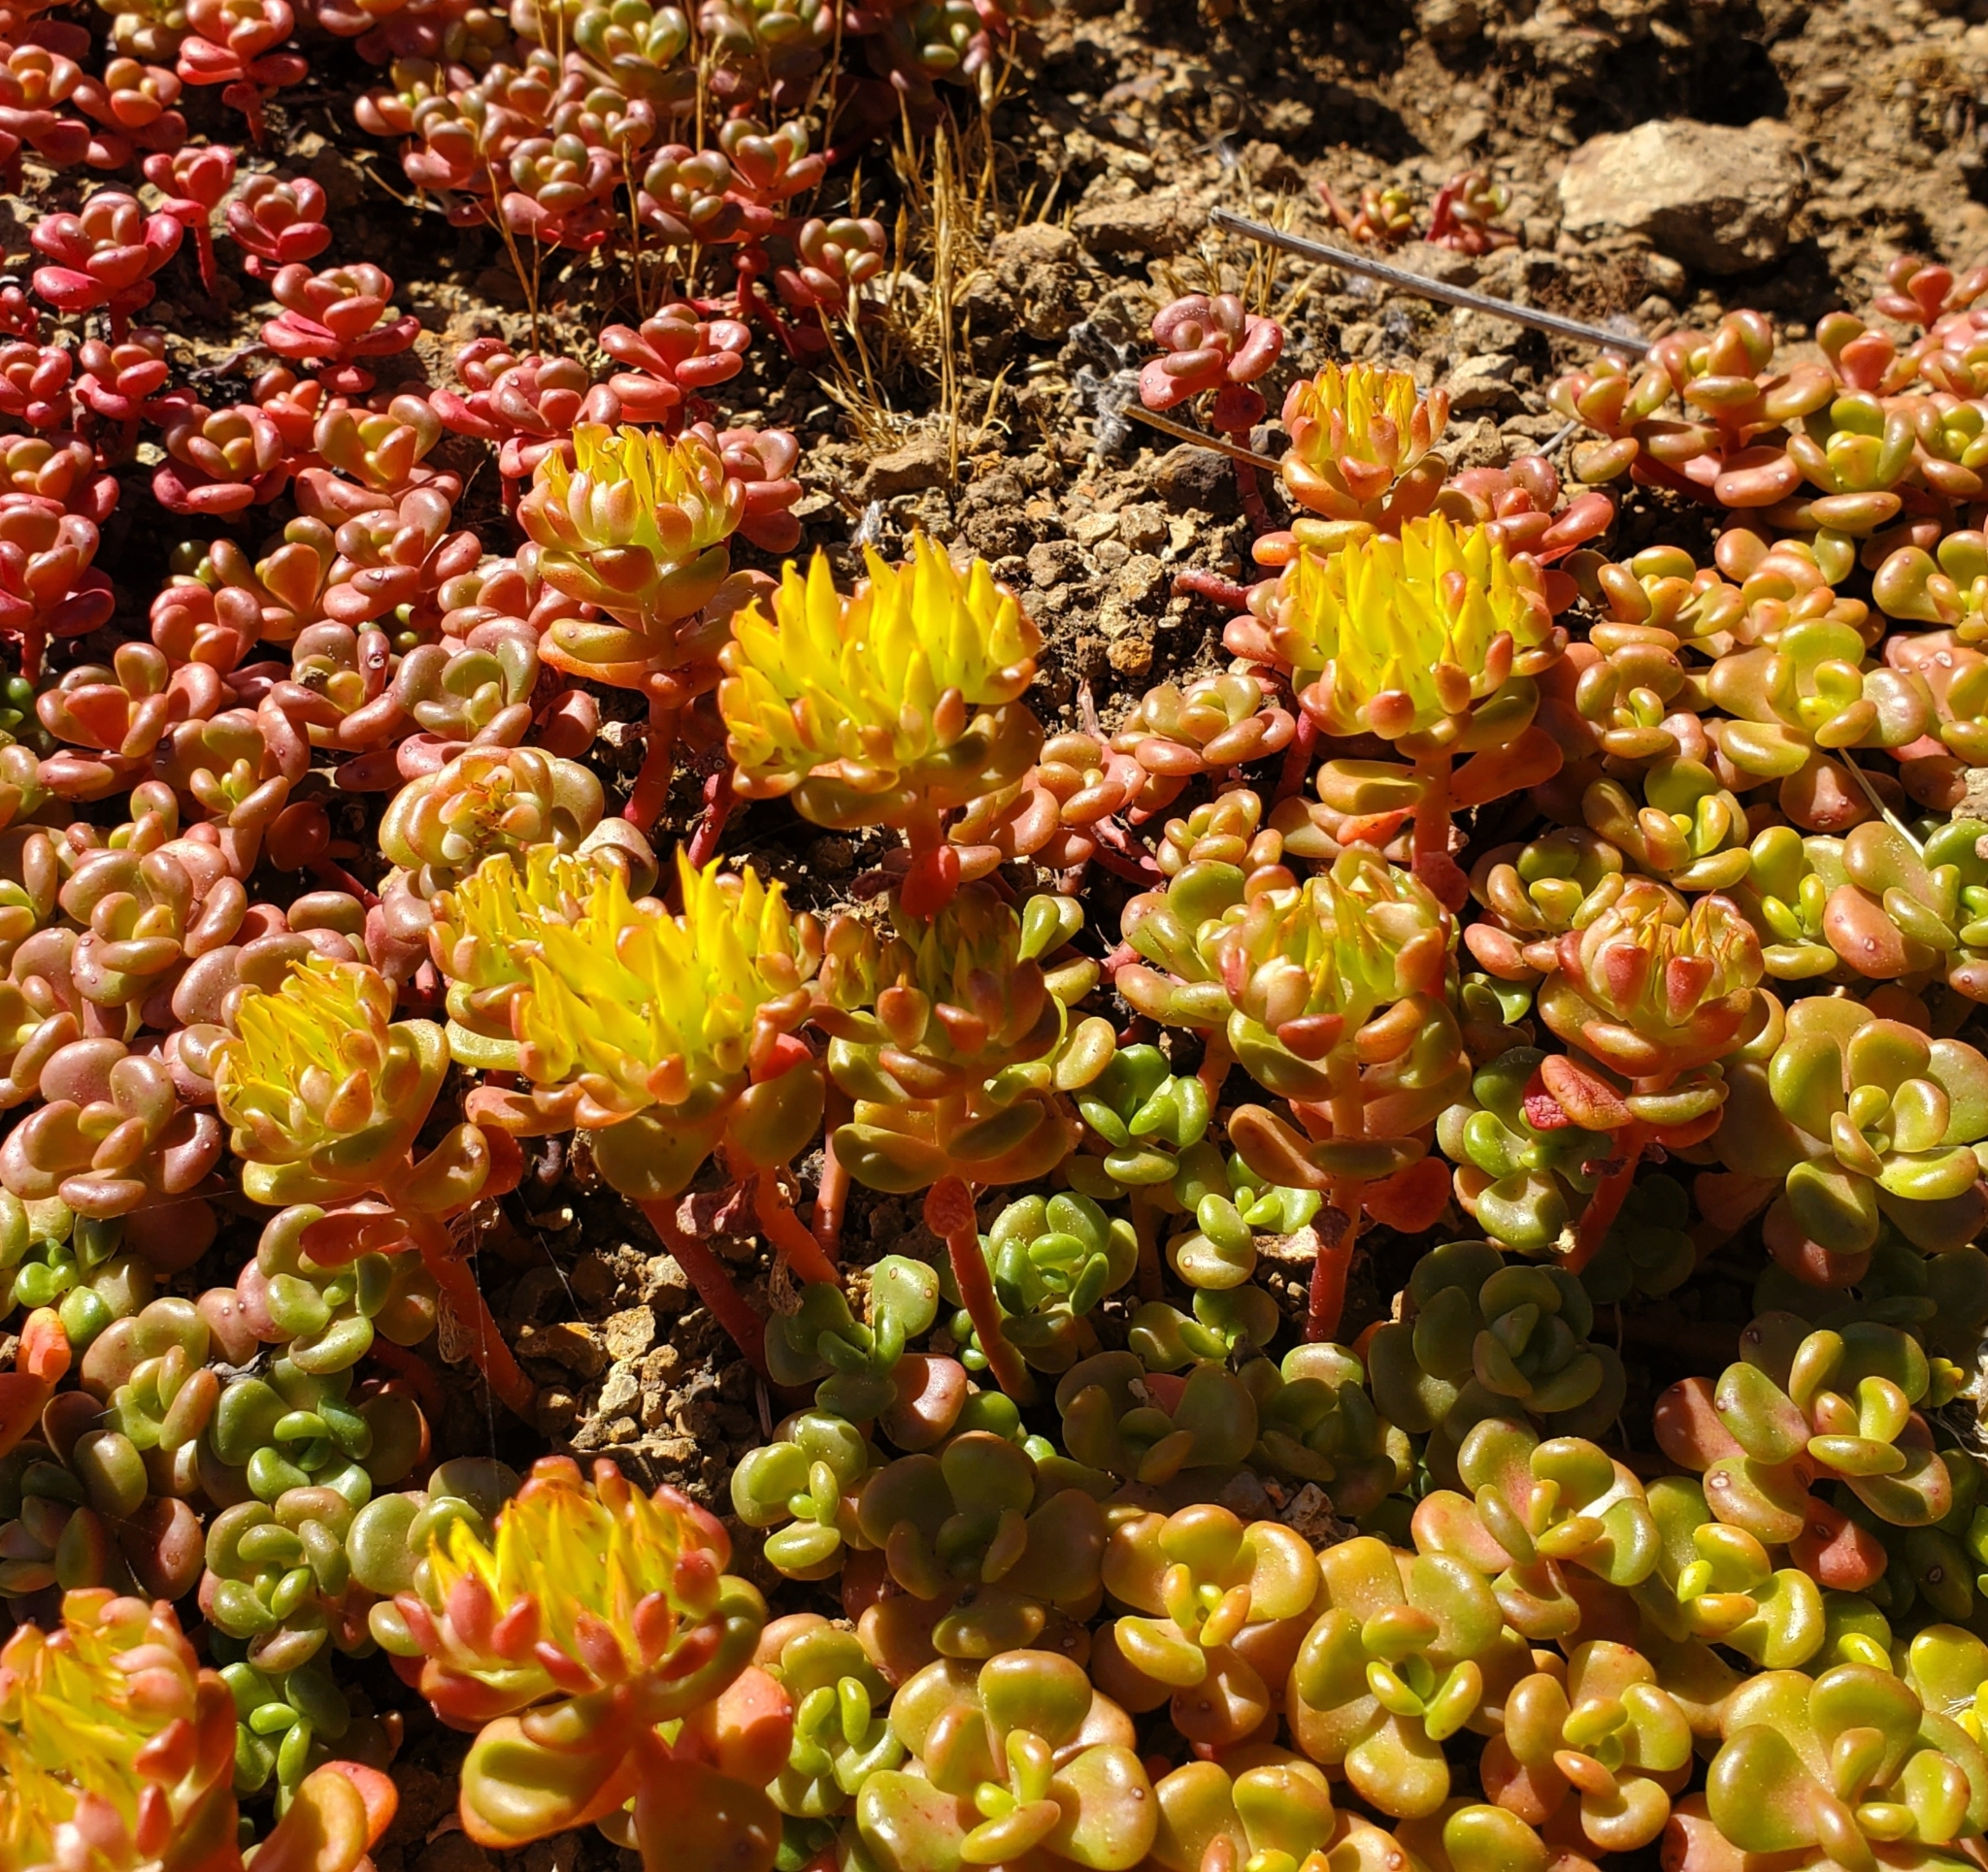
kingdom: Plantae
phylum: Tracheophyta
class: Magnoliopsida
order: Saxifragales
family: Crassulaceae
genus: Sedum
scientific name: Sedum oreganum
